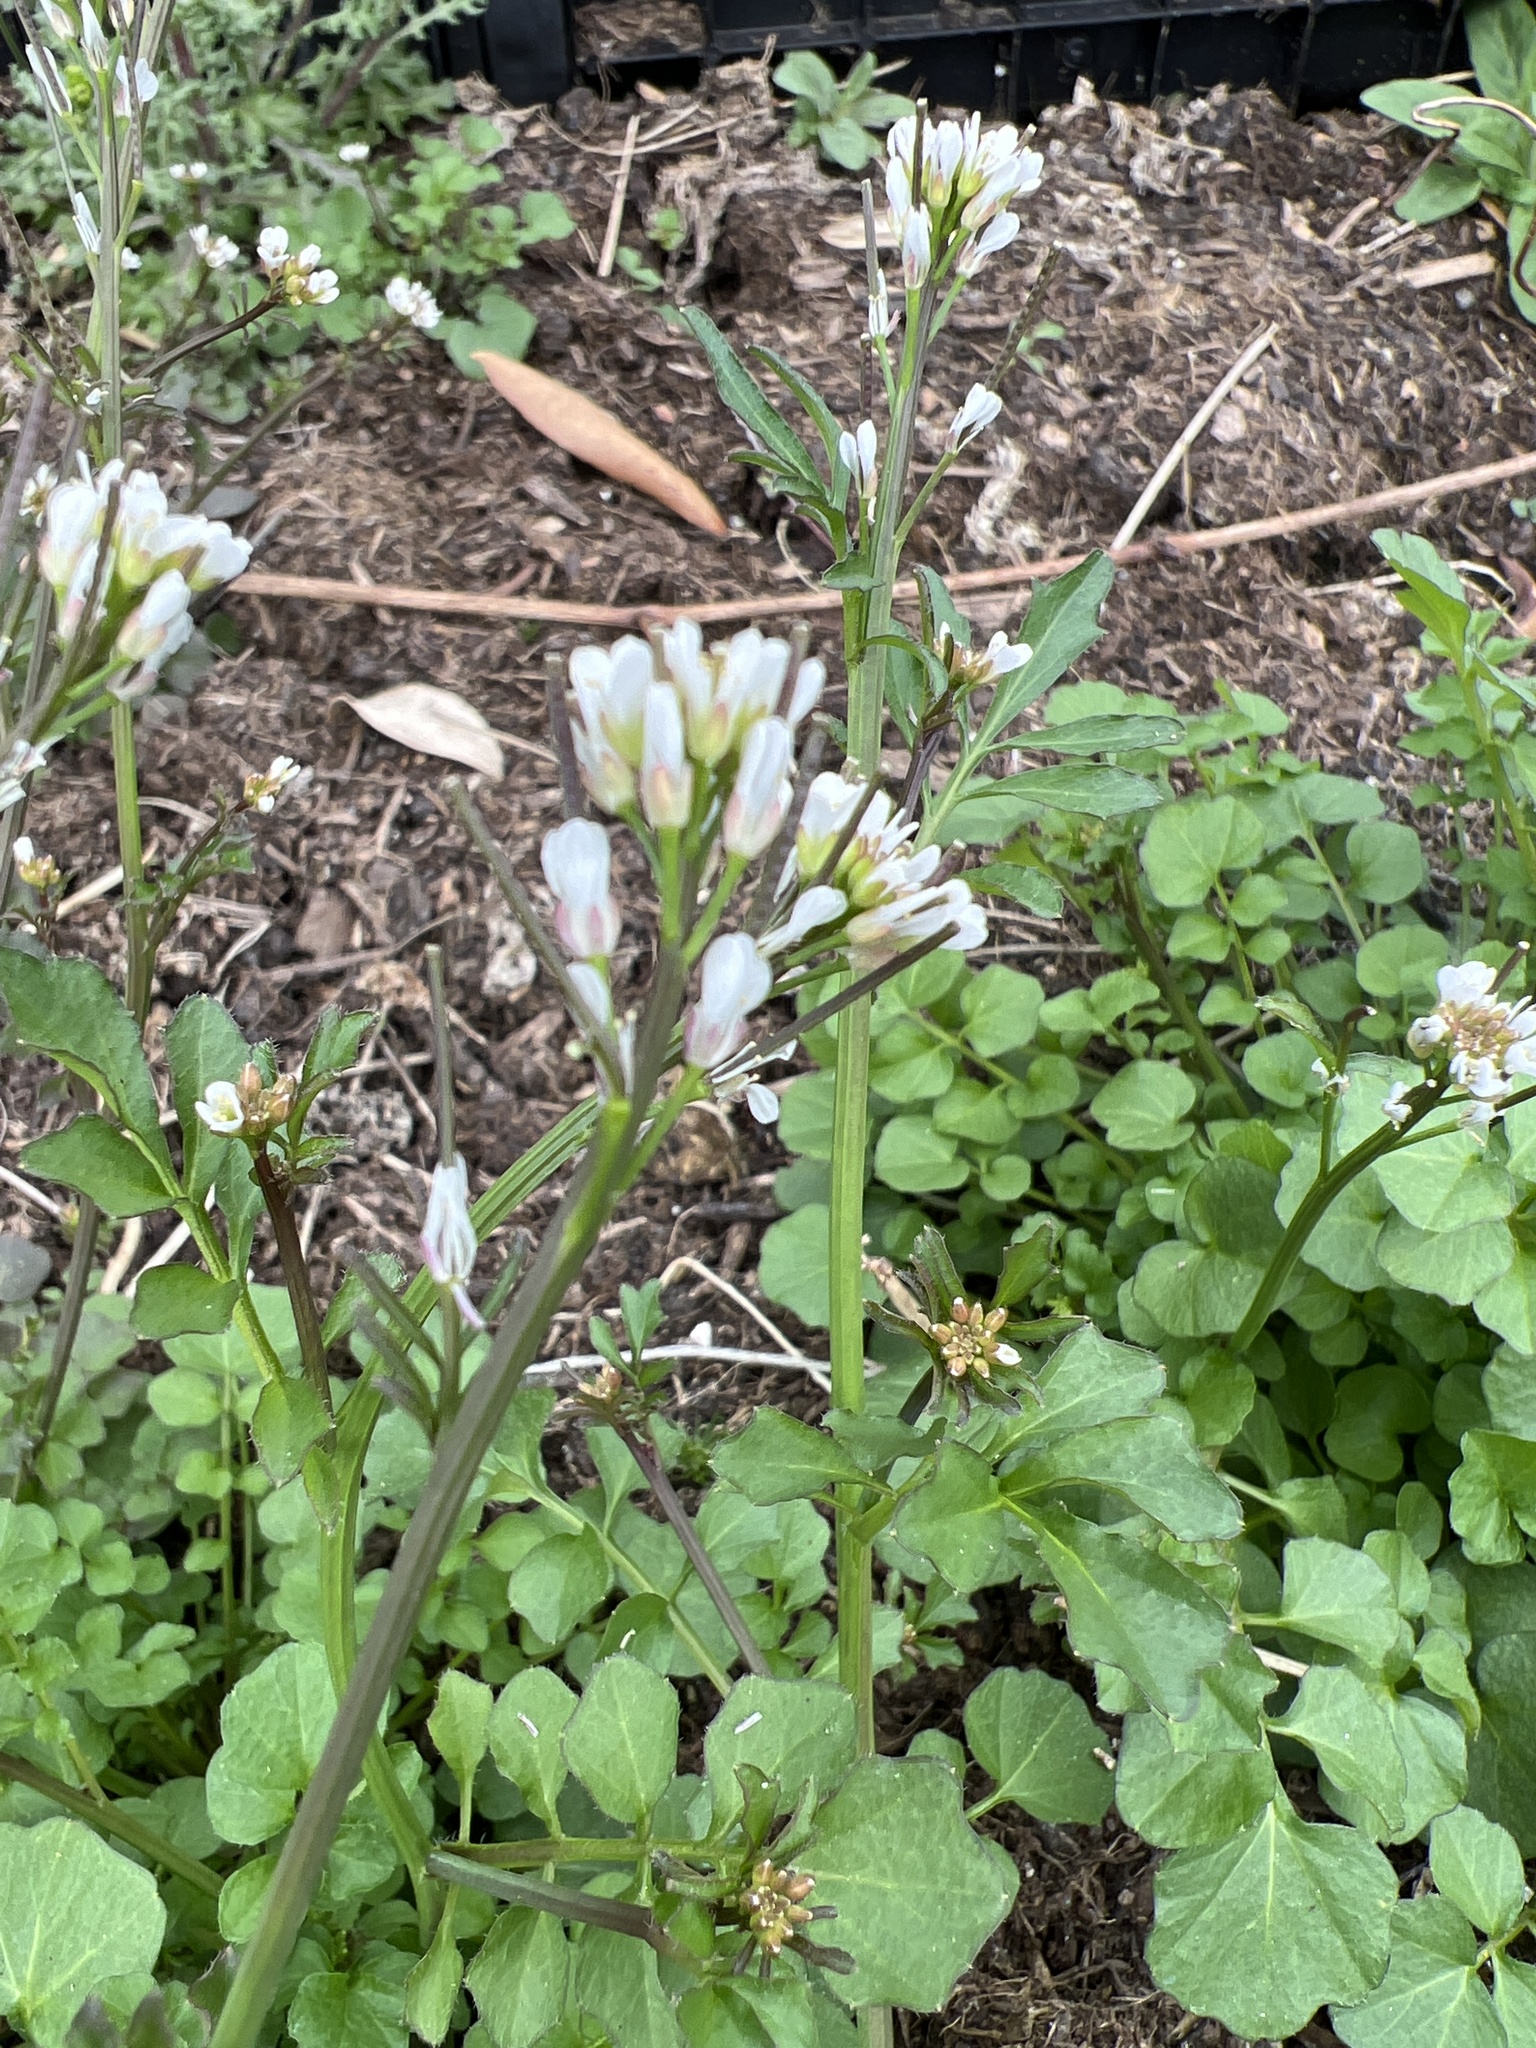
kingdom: Plantae
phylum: Tracheophyta
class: Magnoliopsida
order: Brassicales
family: Brassicaceae
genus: Cardamine
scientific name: Cardamine hirsuta
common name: Hairy bittercress
